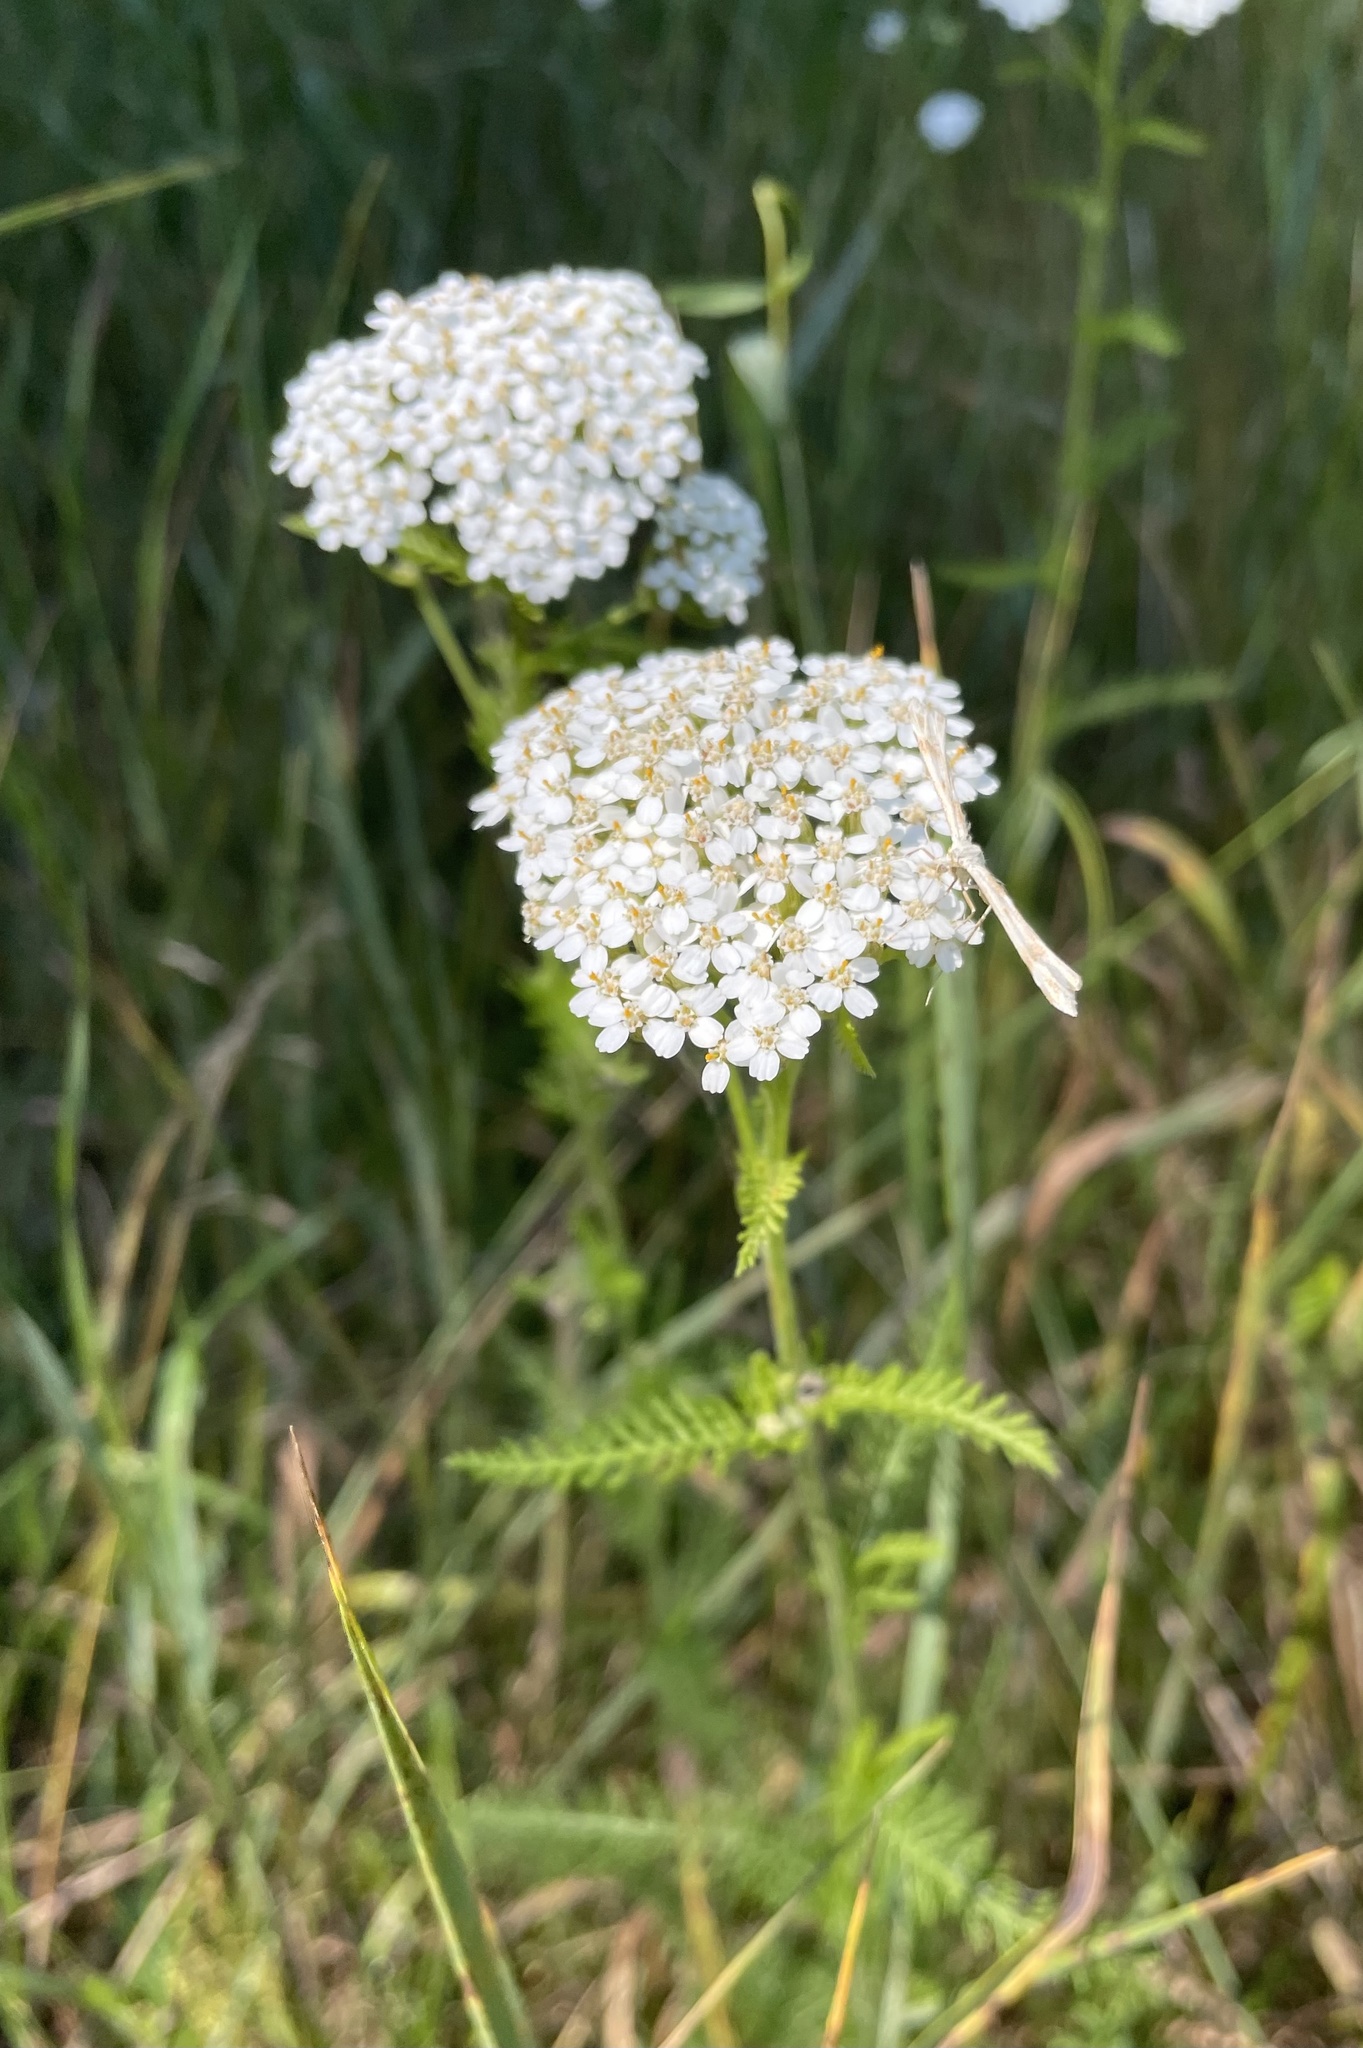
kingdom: Plantae
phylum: Tracheophyta
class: Magnoliopsida
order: Asterales
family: Asteraceae
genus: Achillea
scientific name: Achillea millefolium
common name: Yarrow
